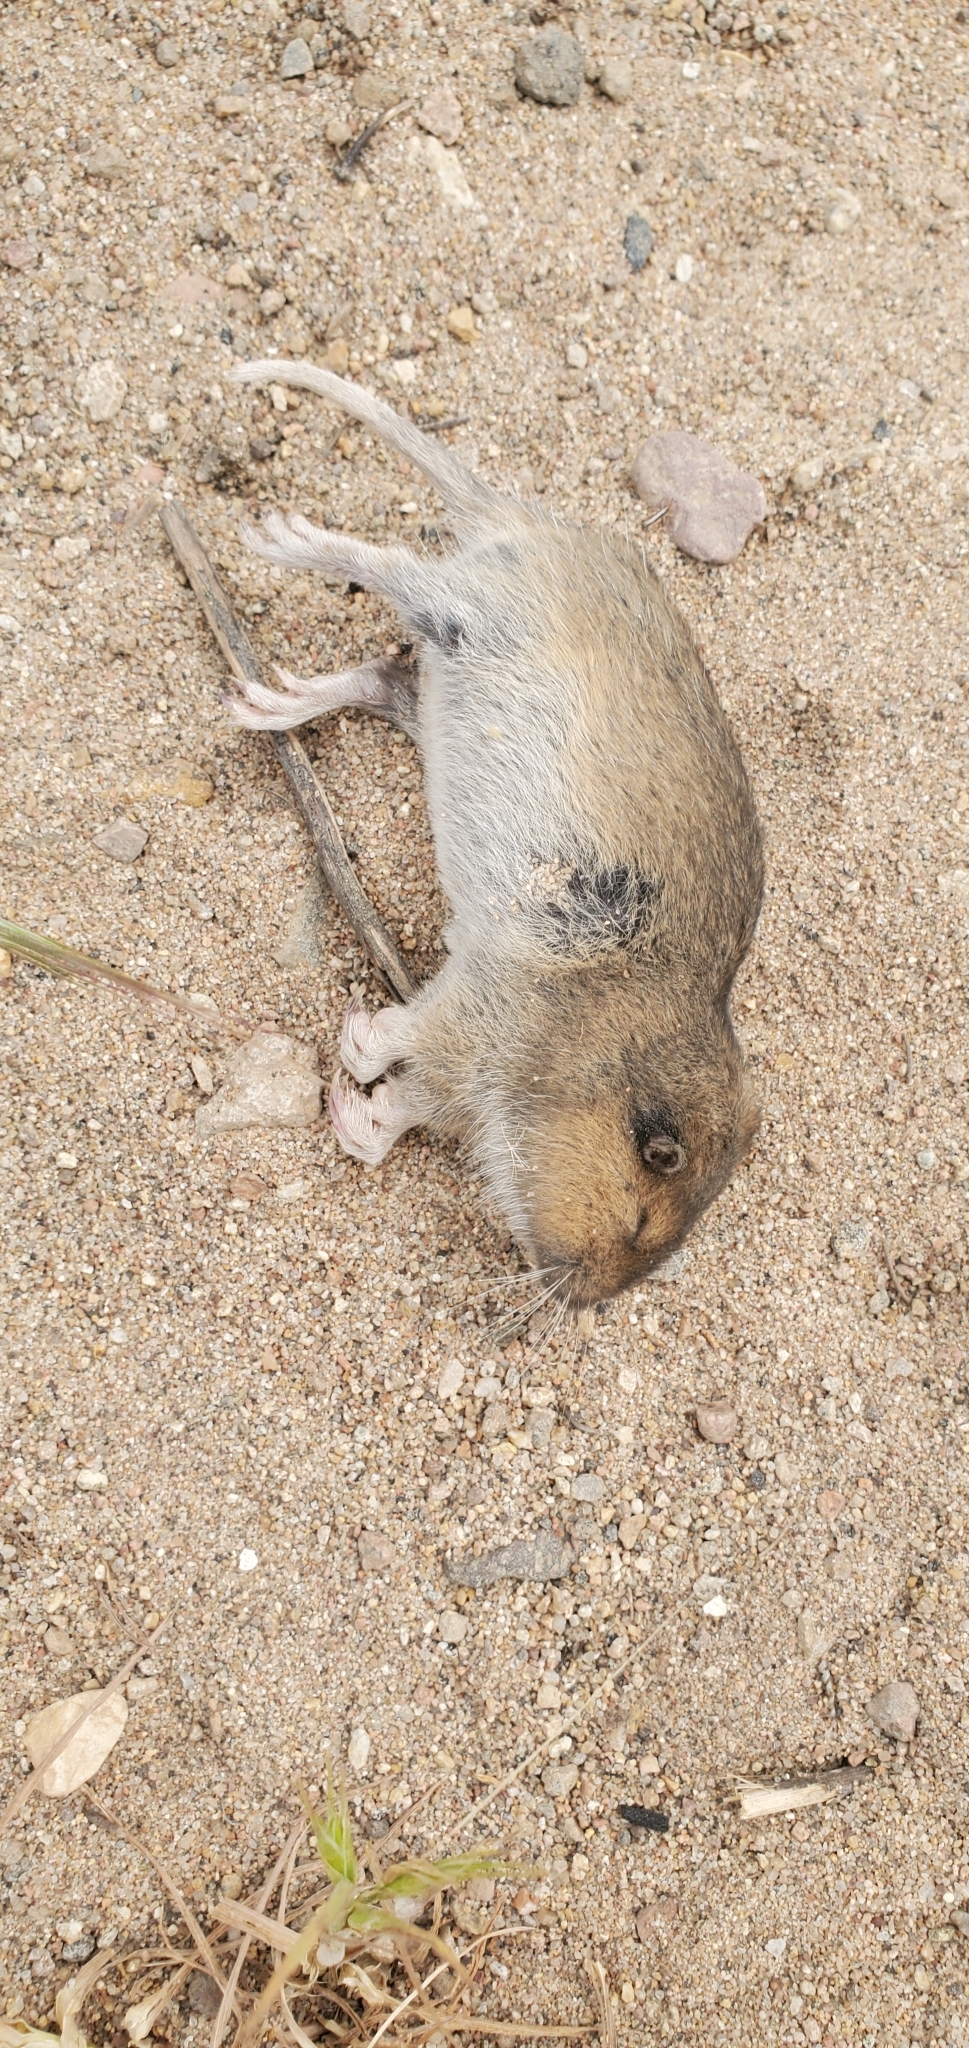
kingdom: Animalia
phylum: Chordata
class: Mammalia
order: Rodentia
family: Geomyidae
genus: Thomomys
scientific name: Thomomys bottae
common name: Botta's pocket gopher
